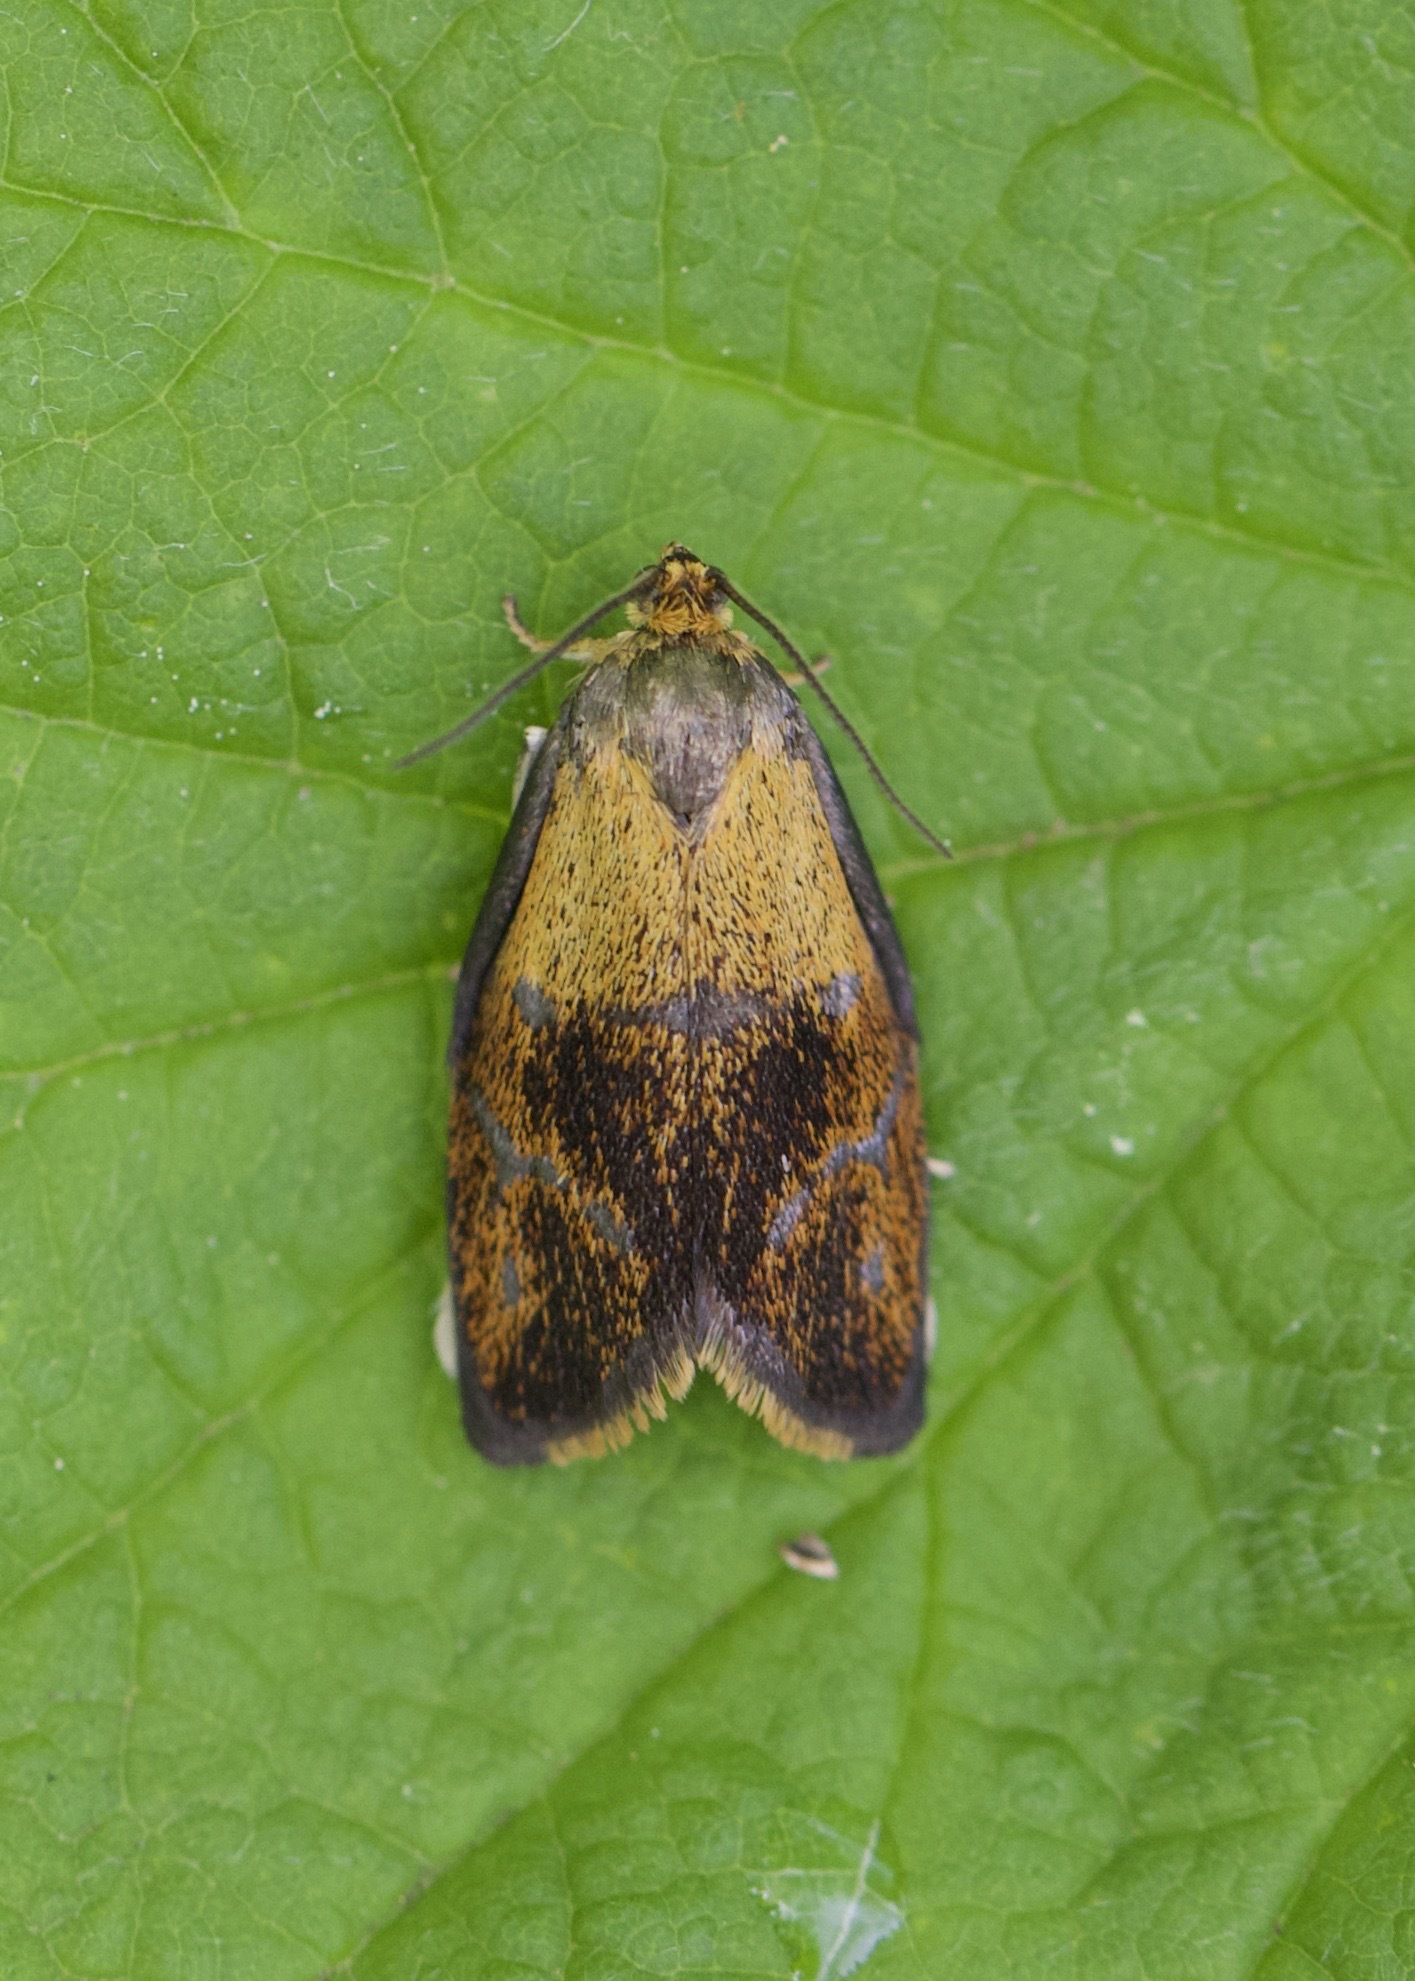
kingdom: Animalia
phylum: Arthropoda
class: Insecta
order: Lepidoptera
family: Tortricidae
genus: Ptycholoma
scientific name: Ptycholoma lecheana
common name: Leches twist moth
